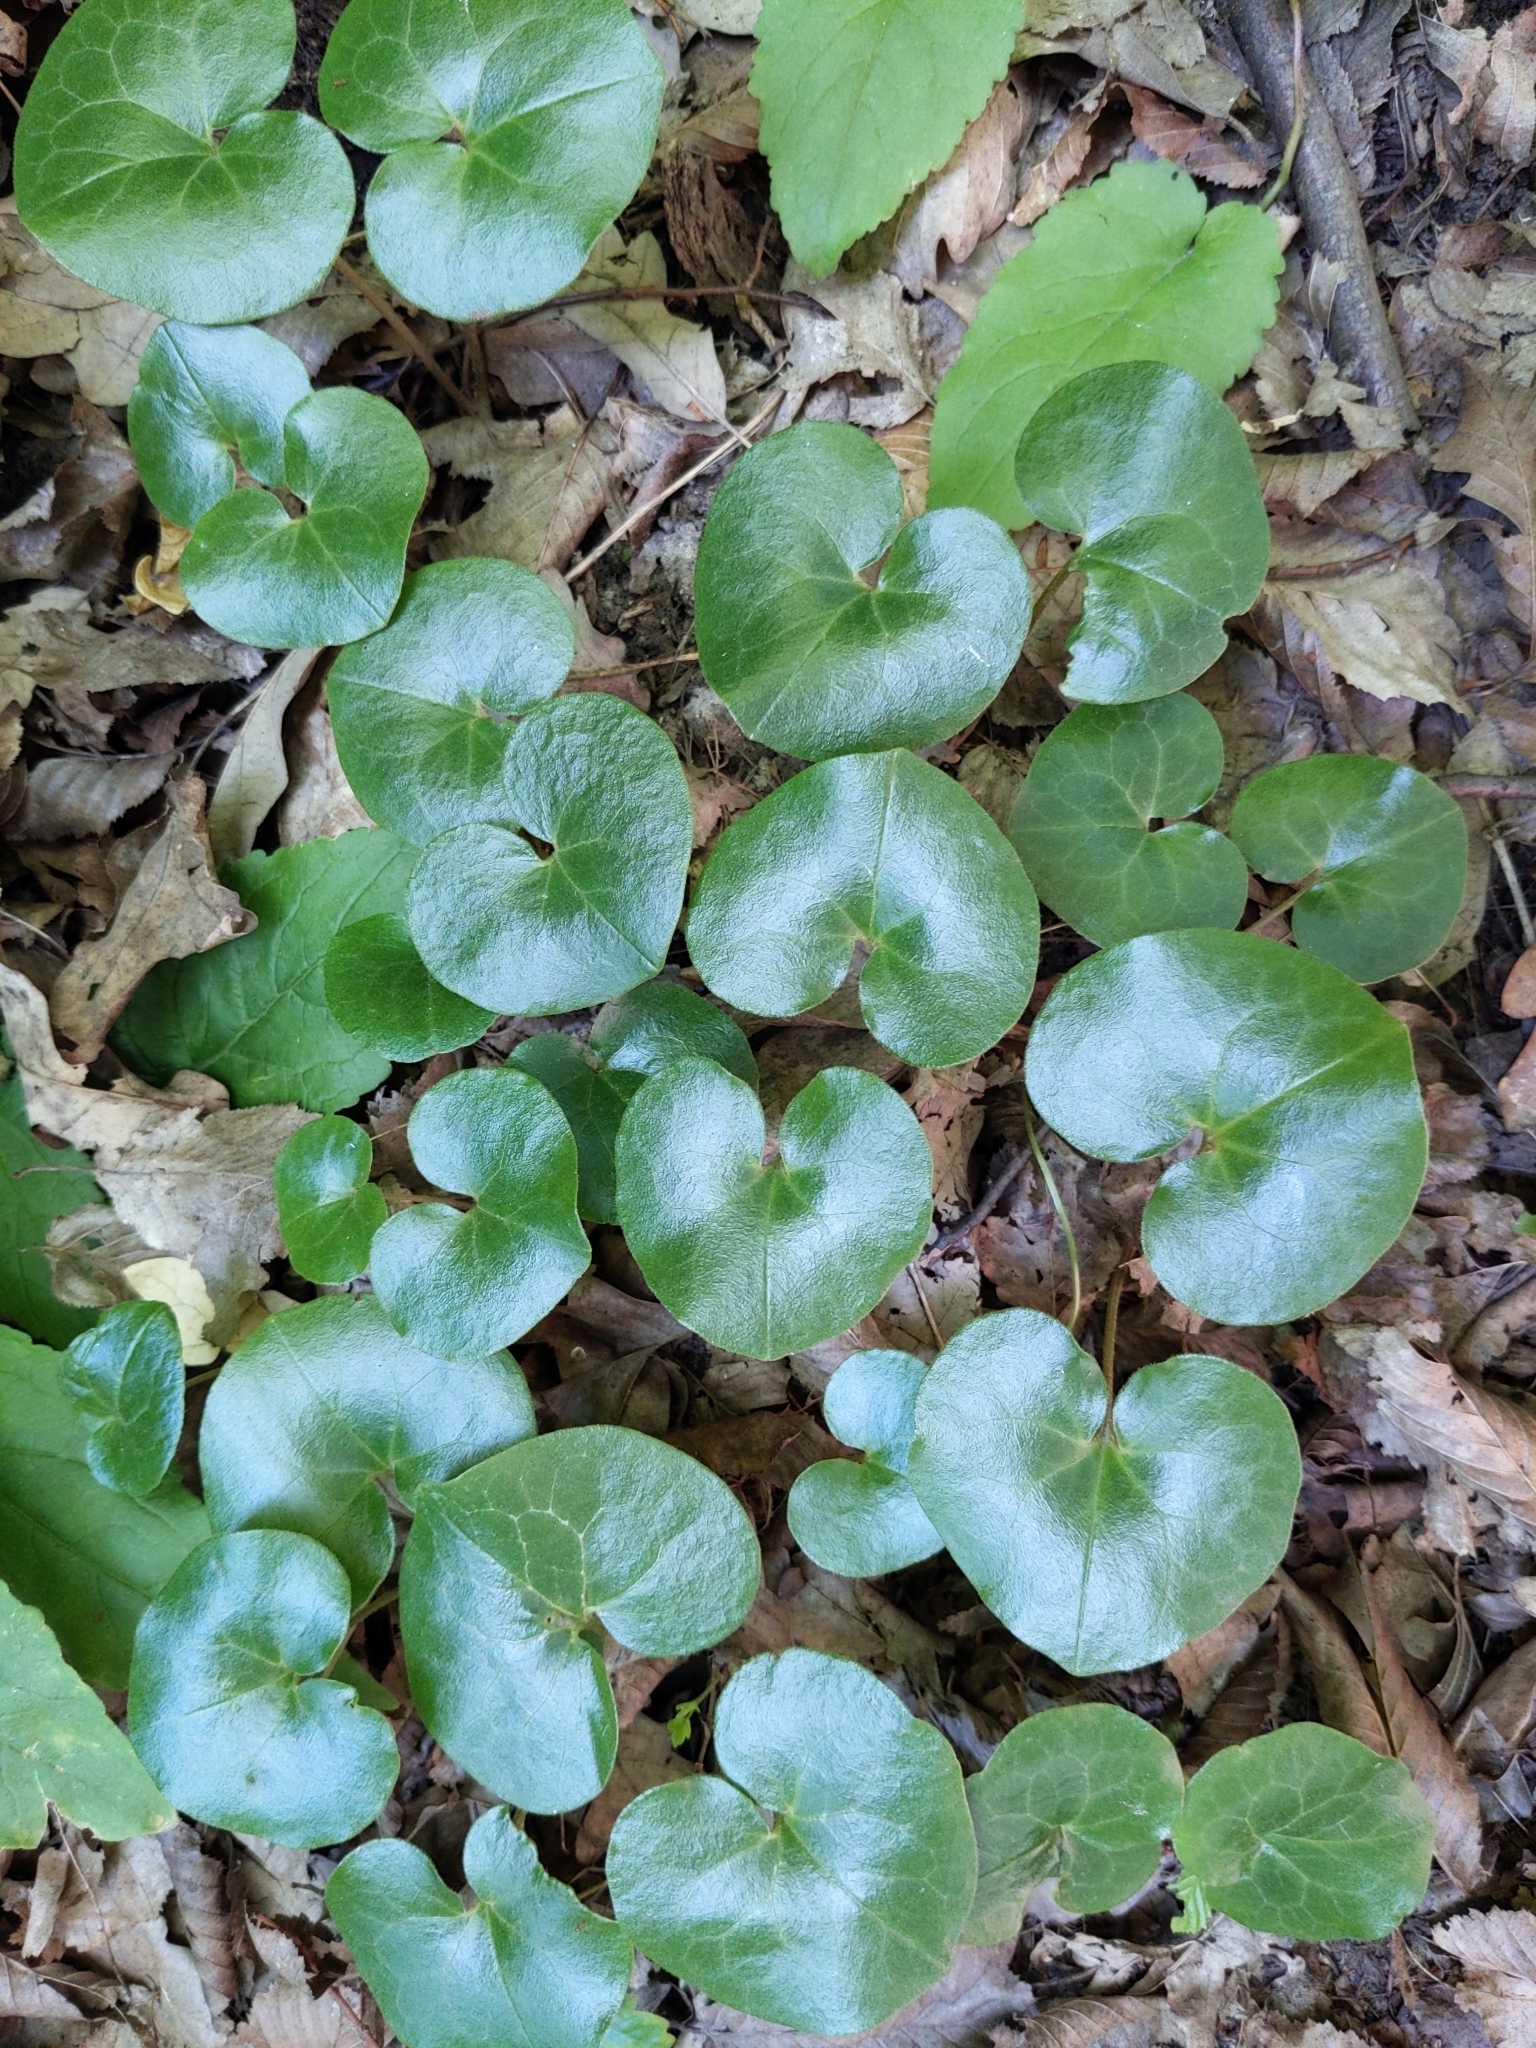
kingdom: Plantae
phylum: Tracheophyta
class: Magnoliopsida
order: Piperales
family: Aristolochiaceae
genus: Asarum
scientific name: Asarum europaeum
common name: Asarabacca
